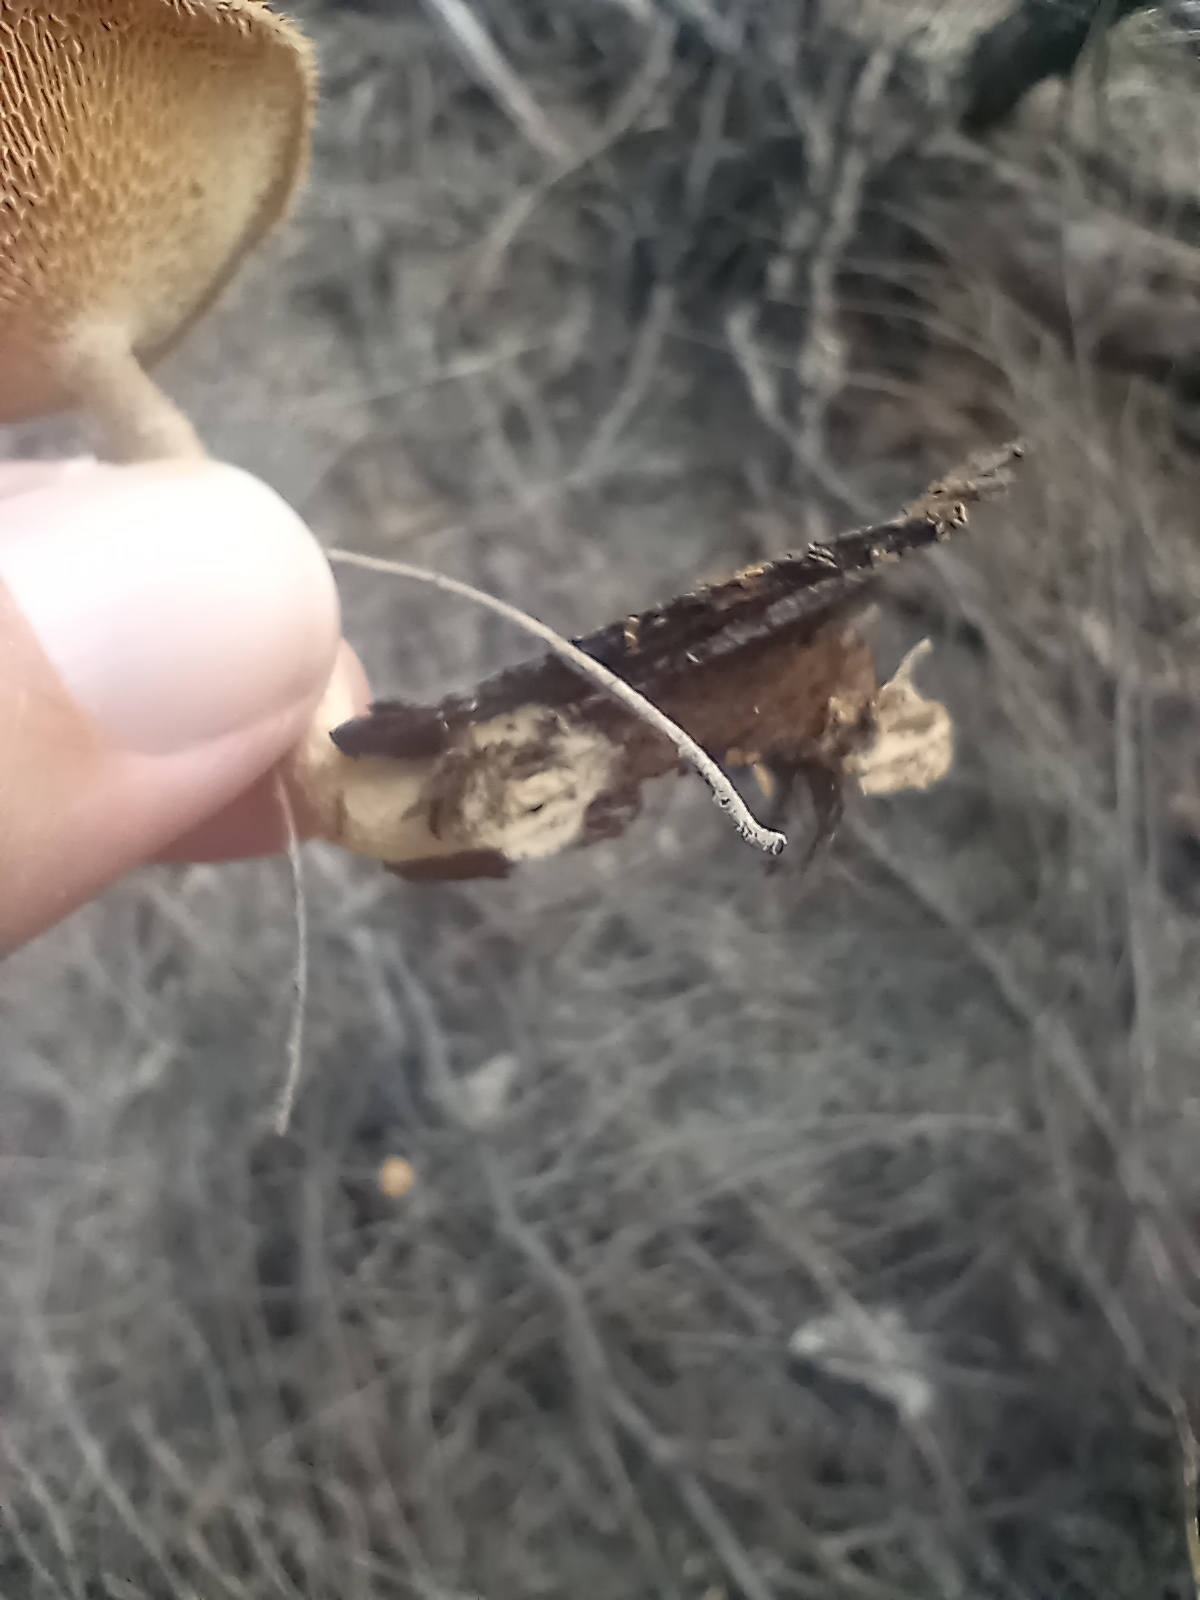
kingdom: Fungi
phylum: Basidiomycota
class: Agaricomycetes
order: Polyporales
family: Polyporaceae
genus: Lentinus
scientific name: Lentinus arcularius
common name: Spring polypore
